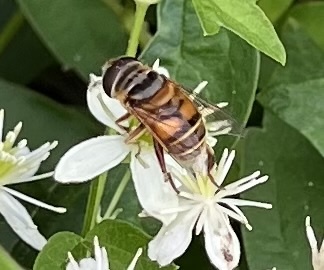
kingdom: Animalia
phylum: Arthropoda
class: Insecta
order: Diptera
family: Syrphidae
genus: Palpada
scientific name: Palpada vinetorum
